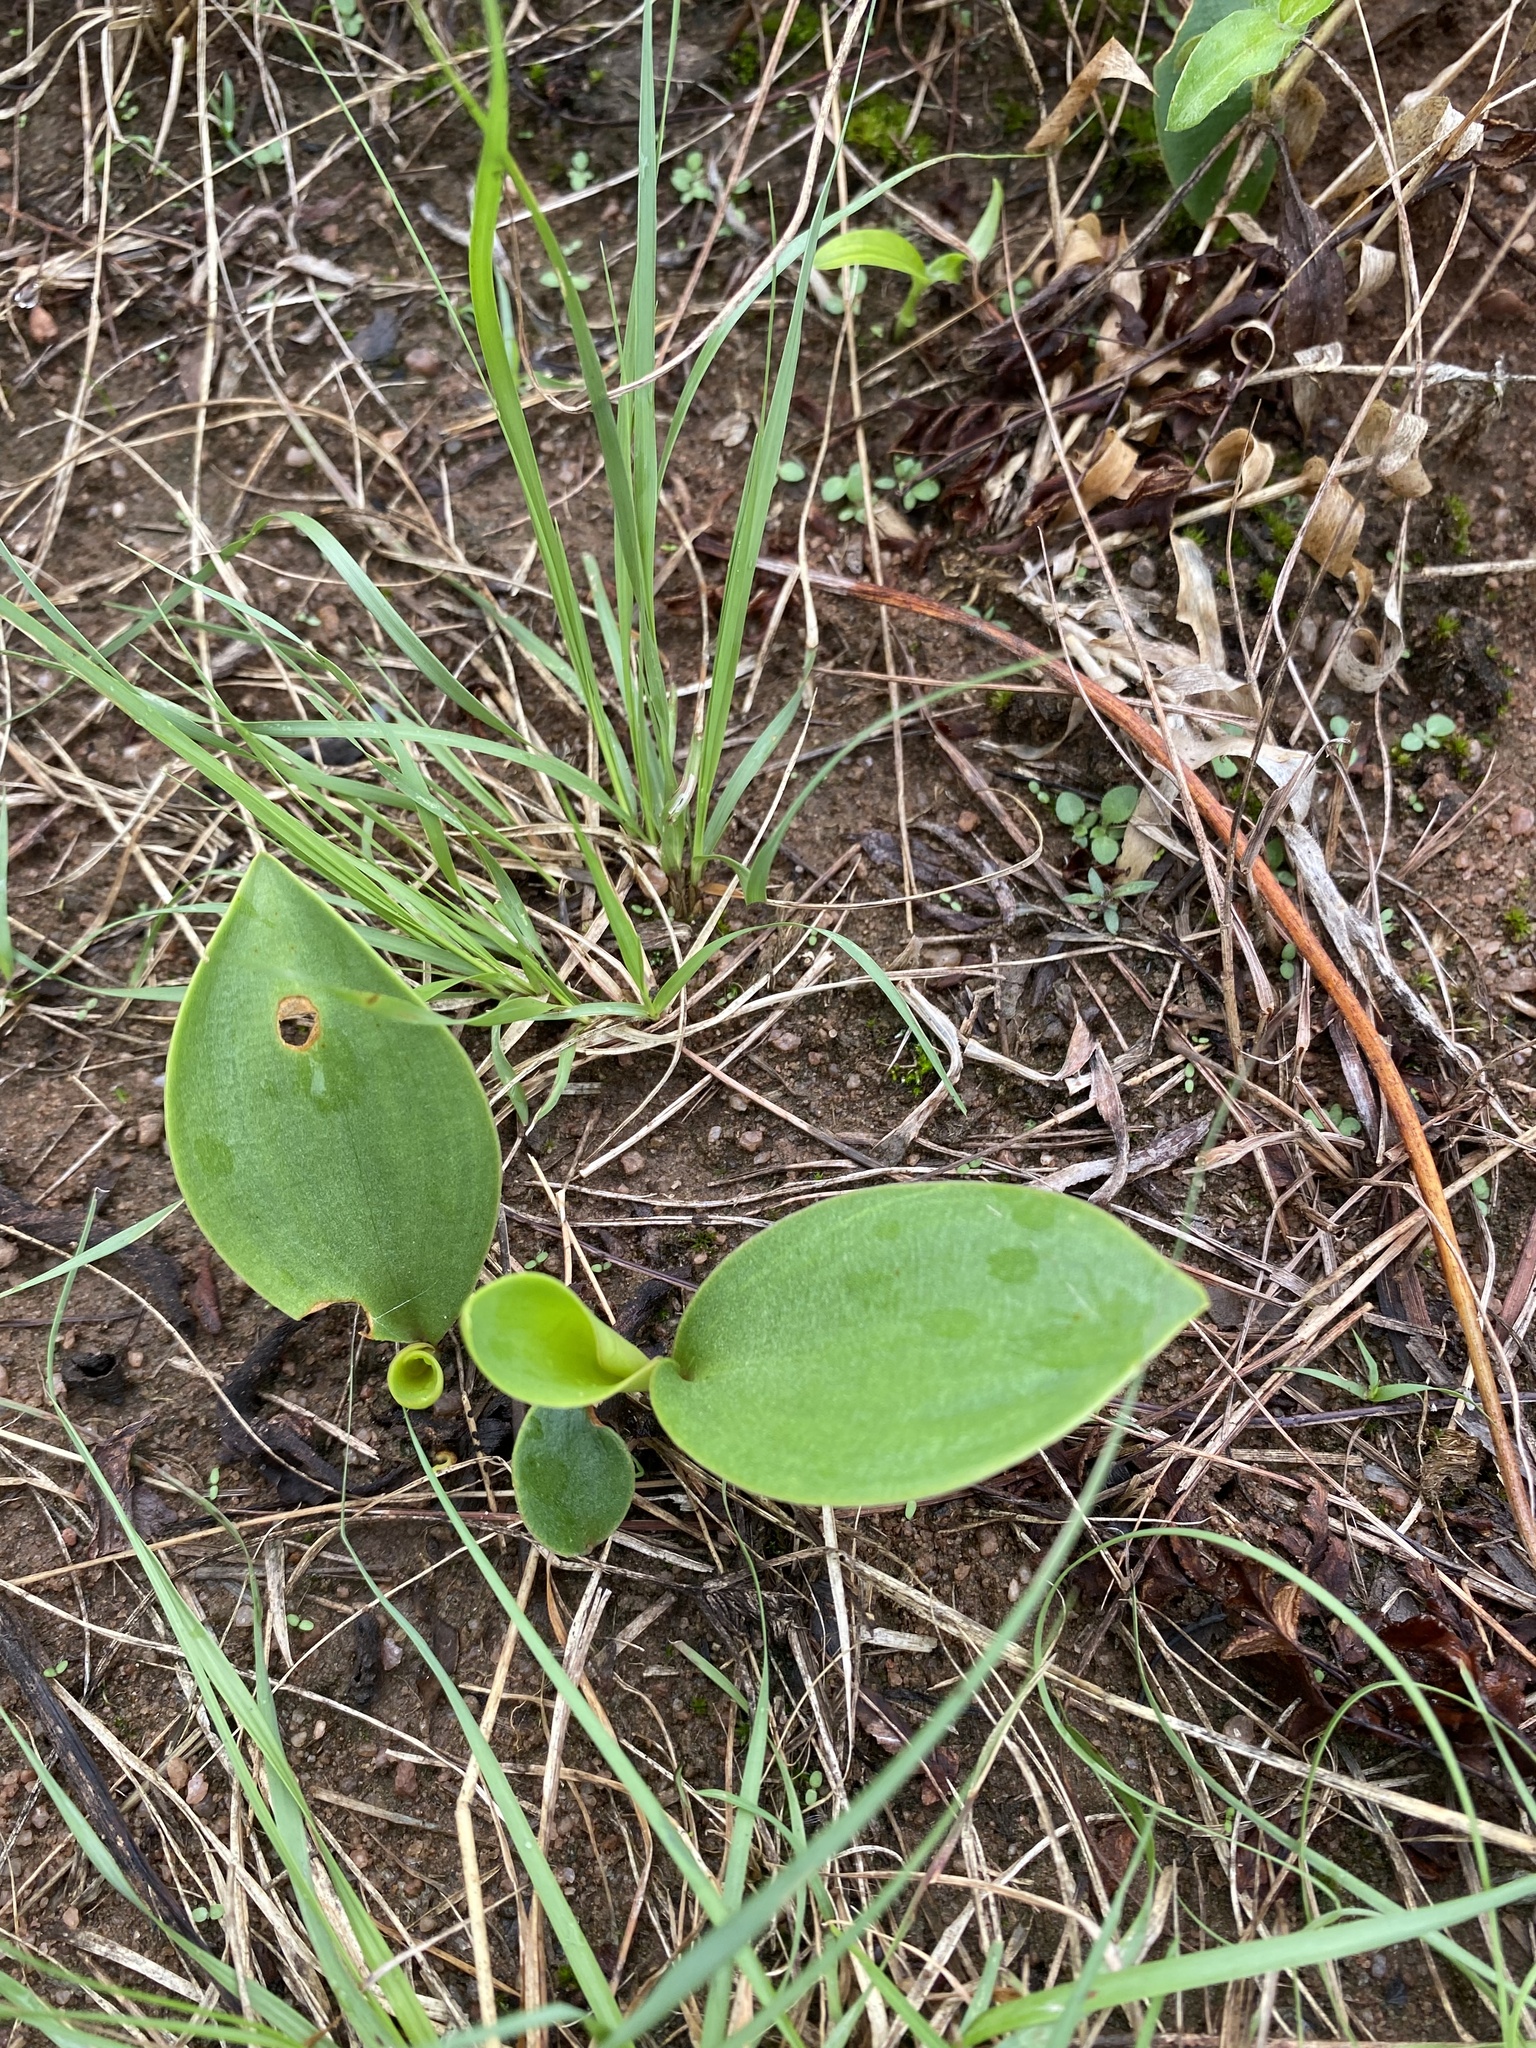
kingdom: Plantae
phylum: Tracheophyta
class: Liliopsida
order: Asparagales
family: Asparagaceae
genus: Eriospermum
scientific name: Eriospermum mackenii
